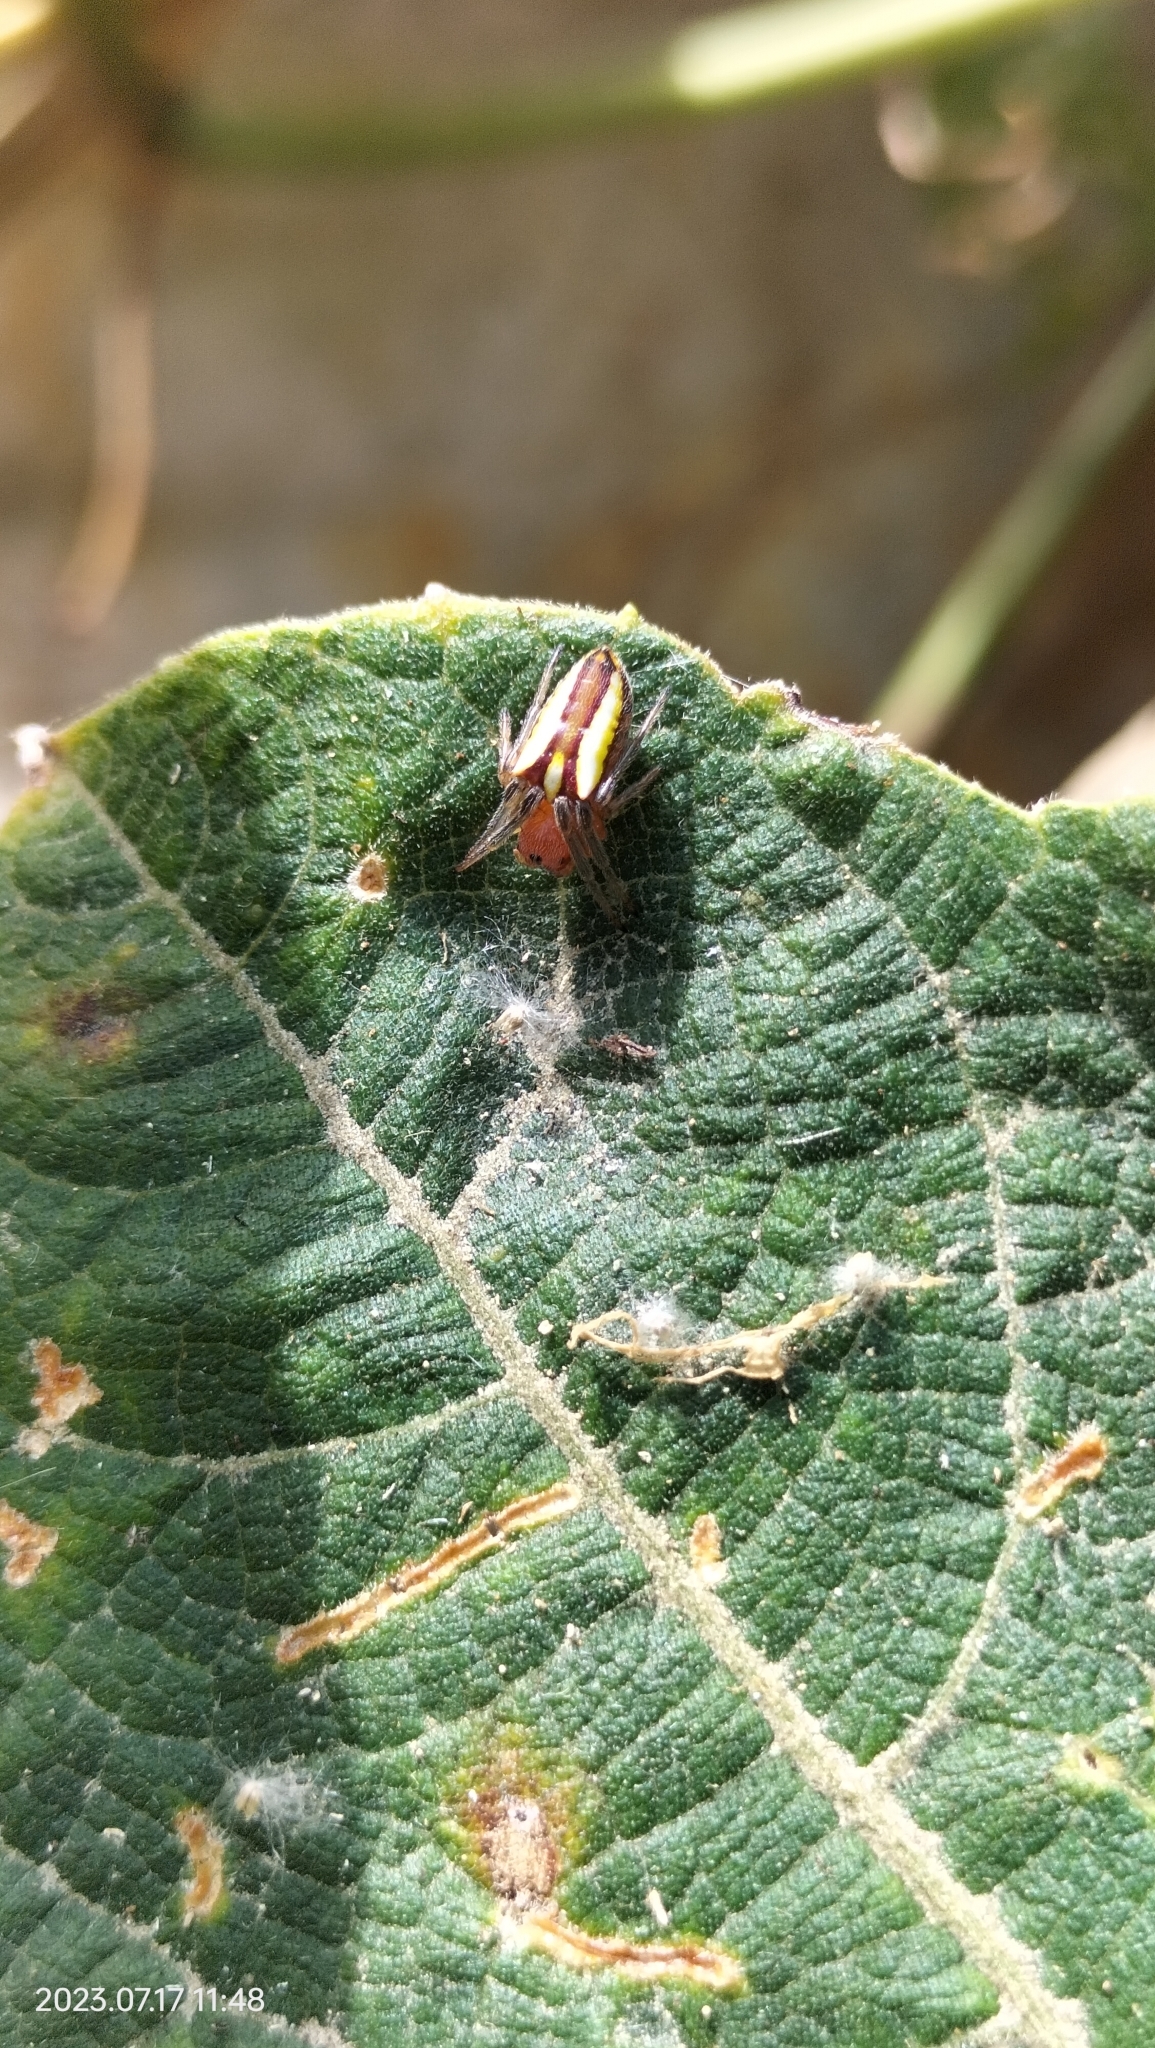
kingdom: Animalia
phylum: Arthropoda
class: Arachnida
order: Araneae
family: Araneidae
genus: Alpaida
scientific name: Alpaida bicornuta
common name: Orb weavers
